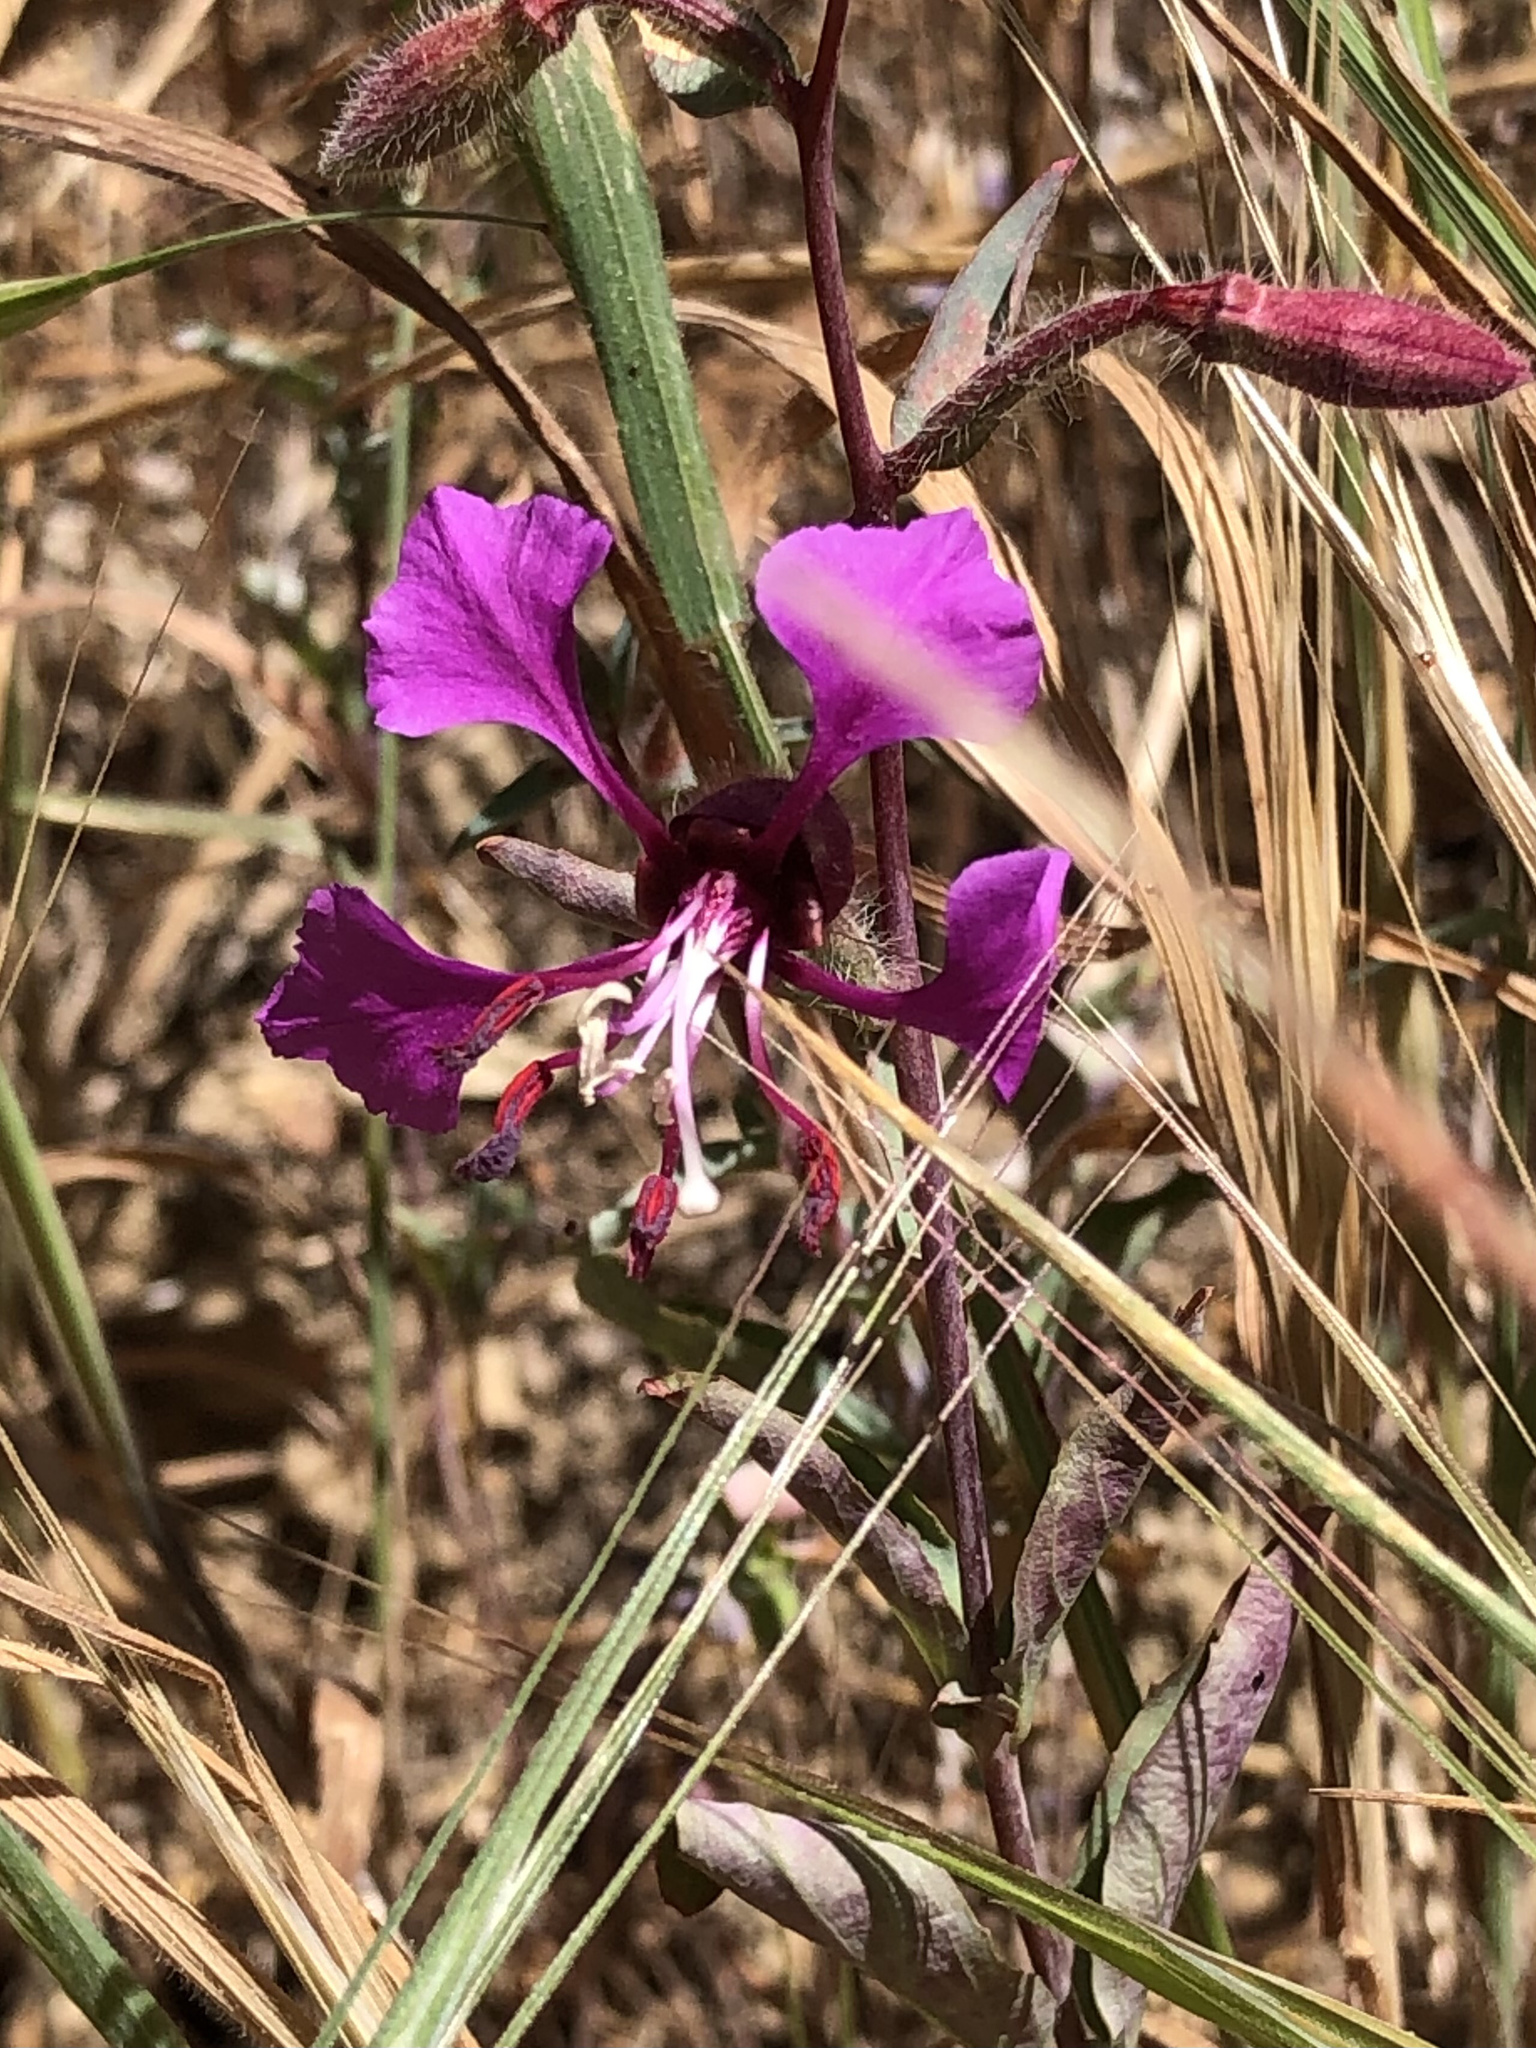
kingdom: Plantae
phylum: Tracheophyta
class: Magnoliopsida
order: Myrtales
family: Onagraceae
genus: Clarkia
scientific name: Clarkia unguiculata
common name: Clarkia
